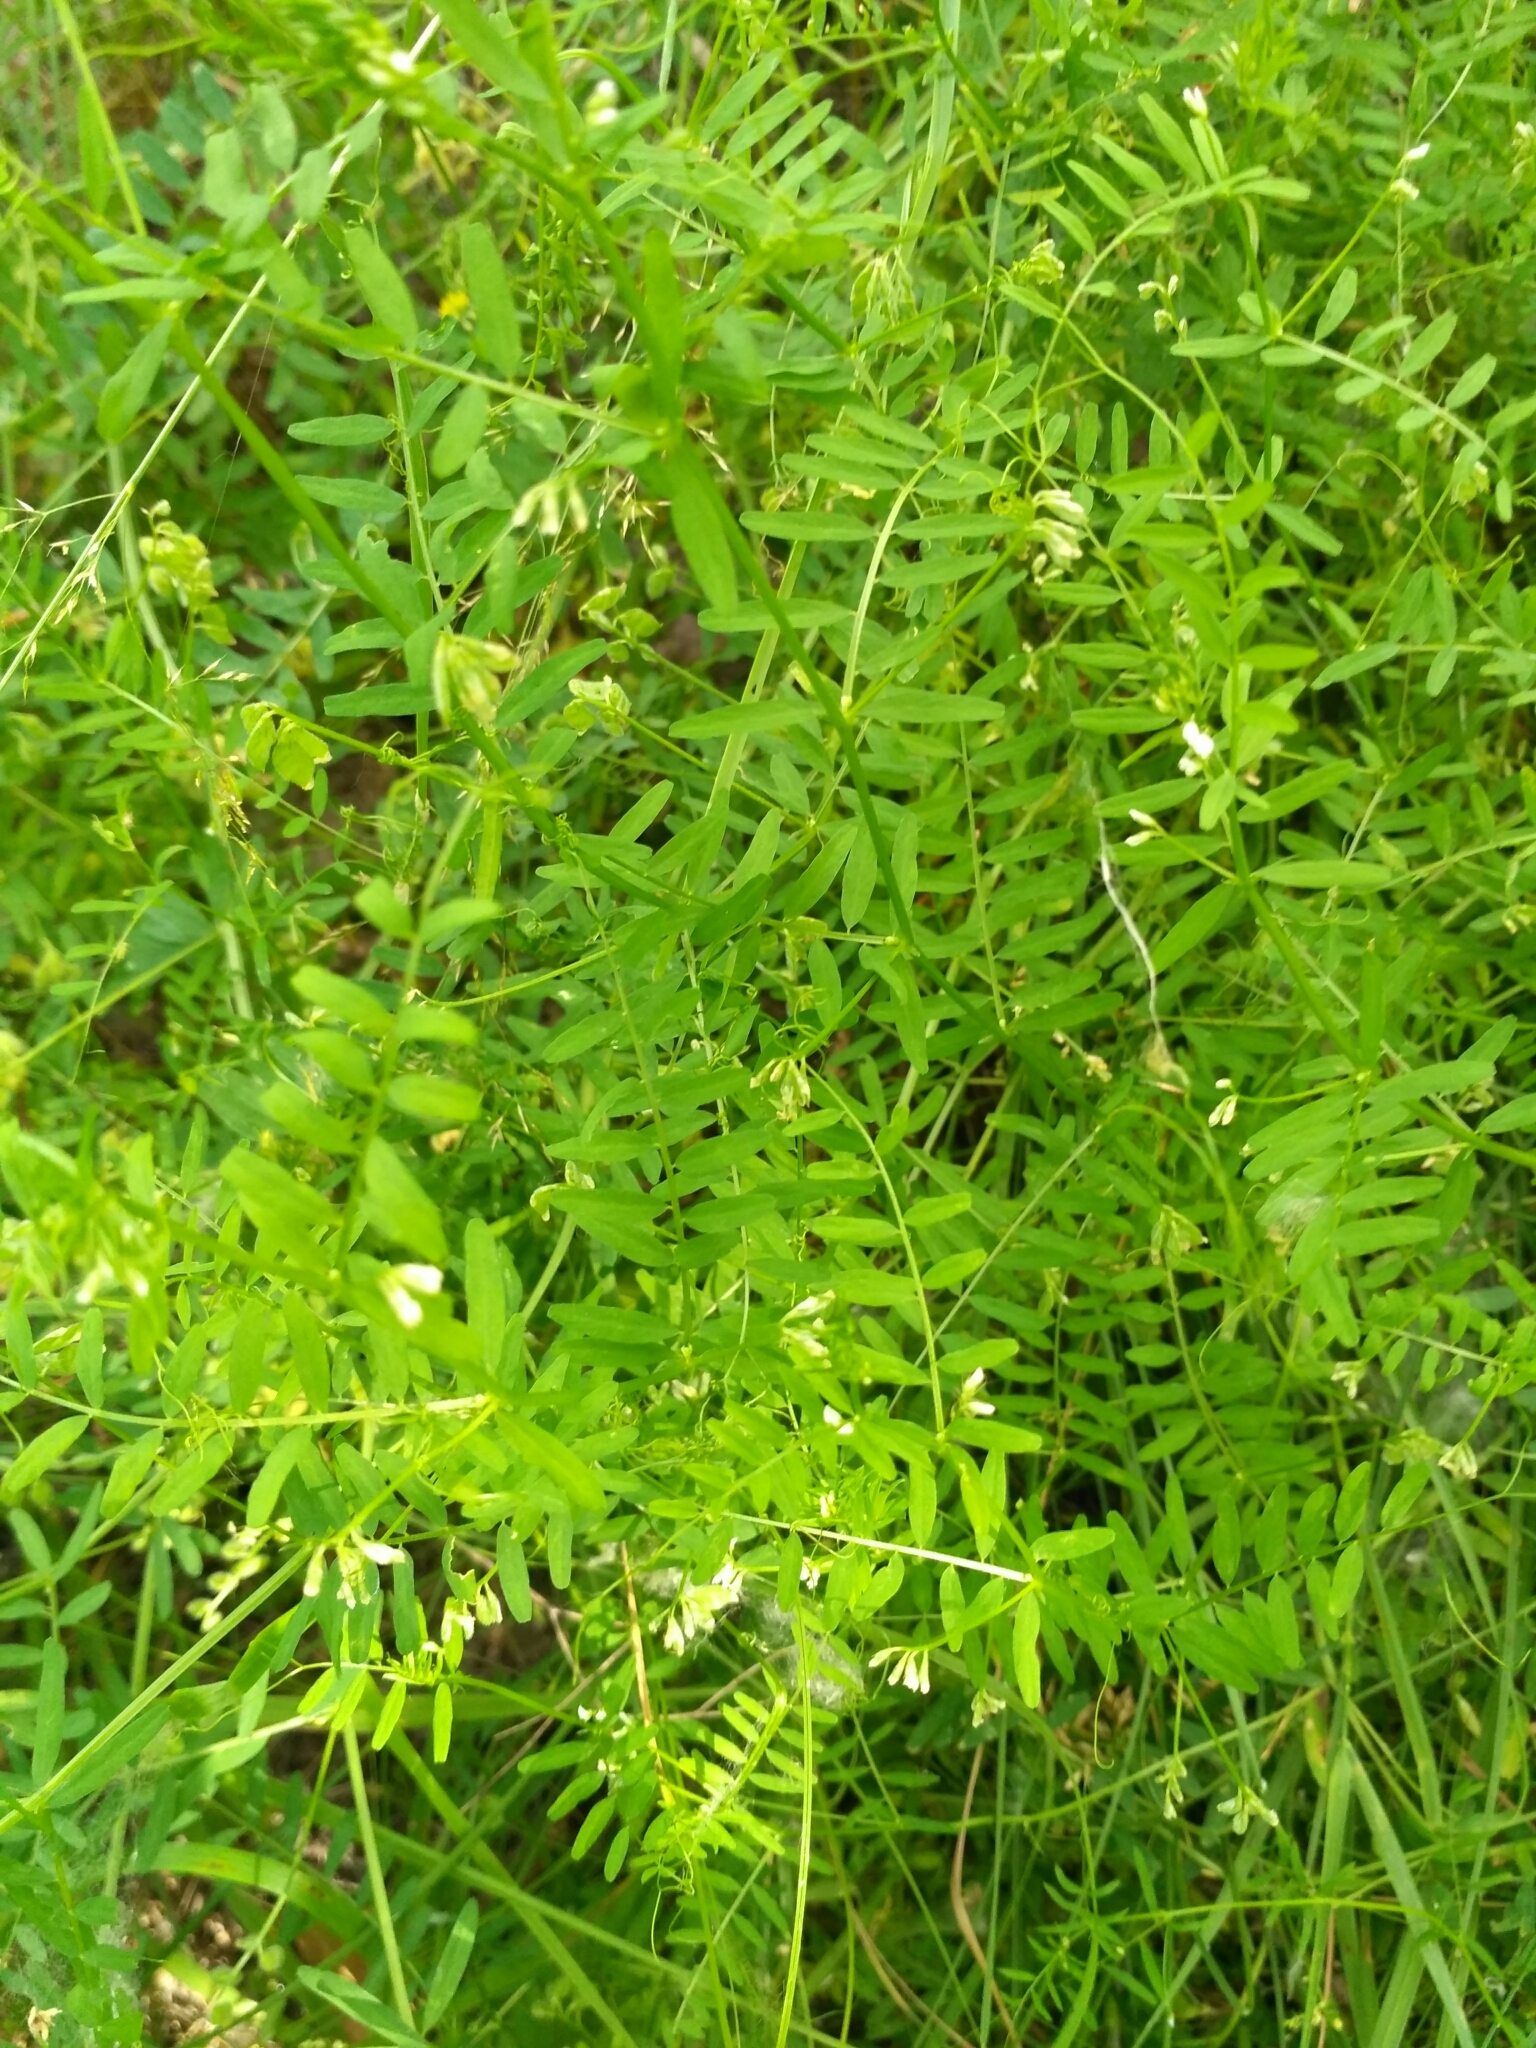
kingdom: Plantae
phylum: Tracheophyta
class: Magnoliopsida
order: Fabales
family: Fabaceae
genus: Vicia
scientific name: Vicia hirsuta
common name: Tiny vetch
